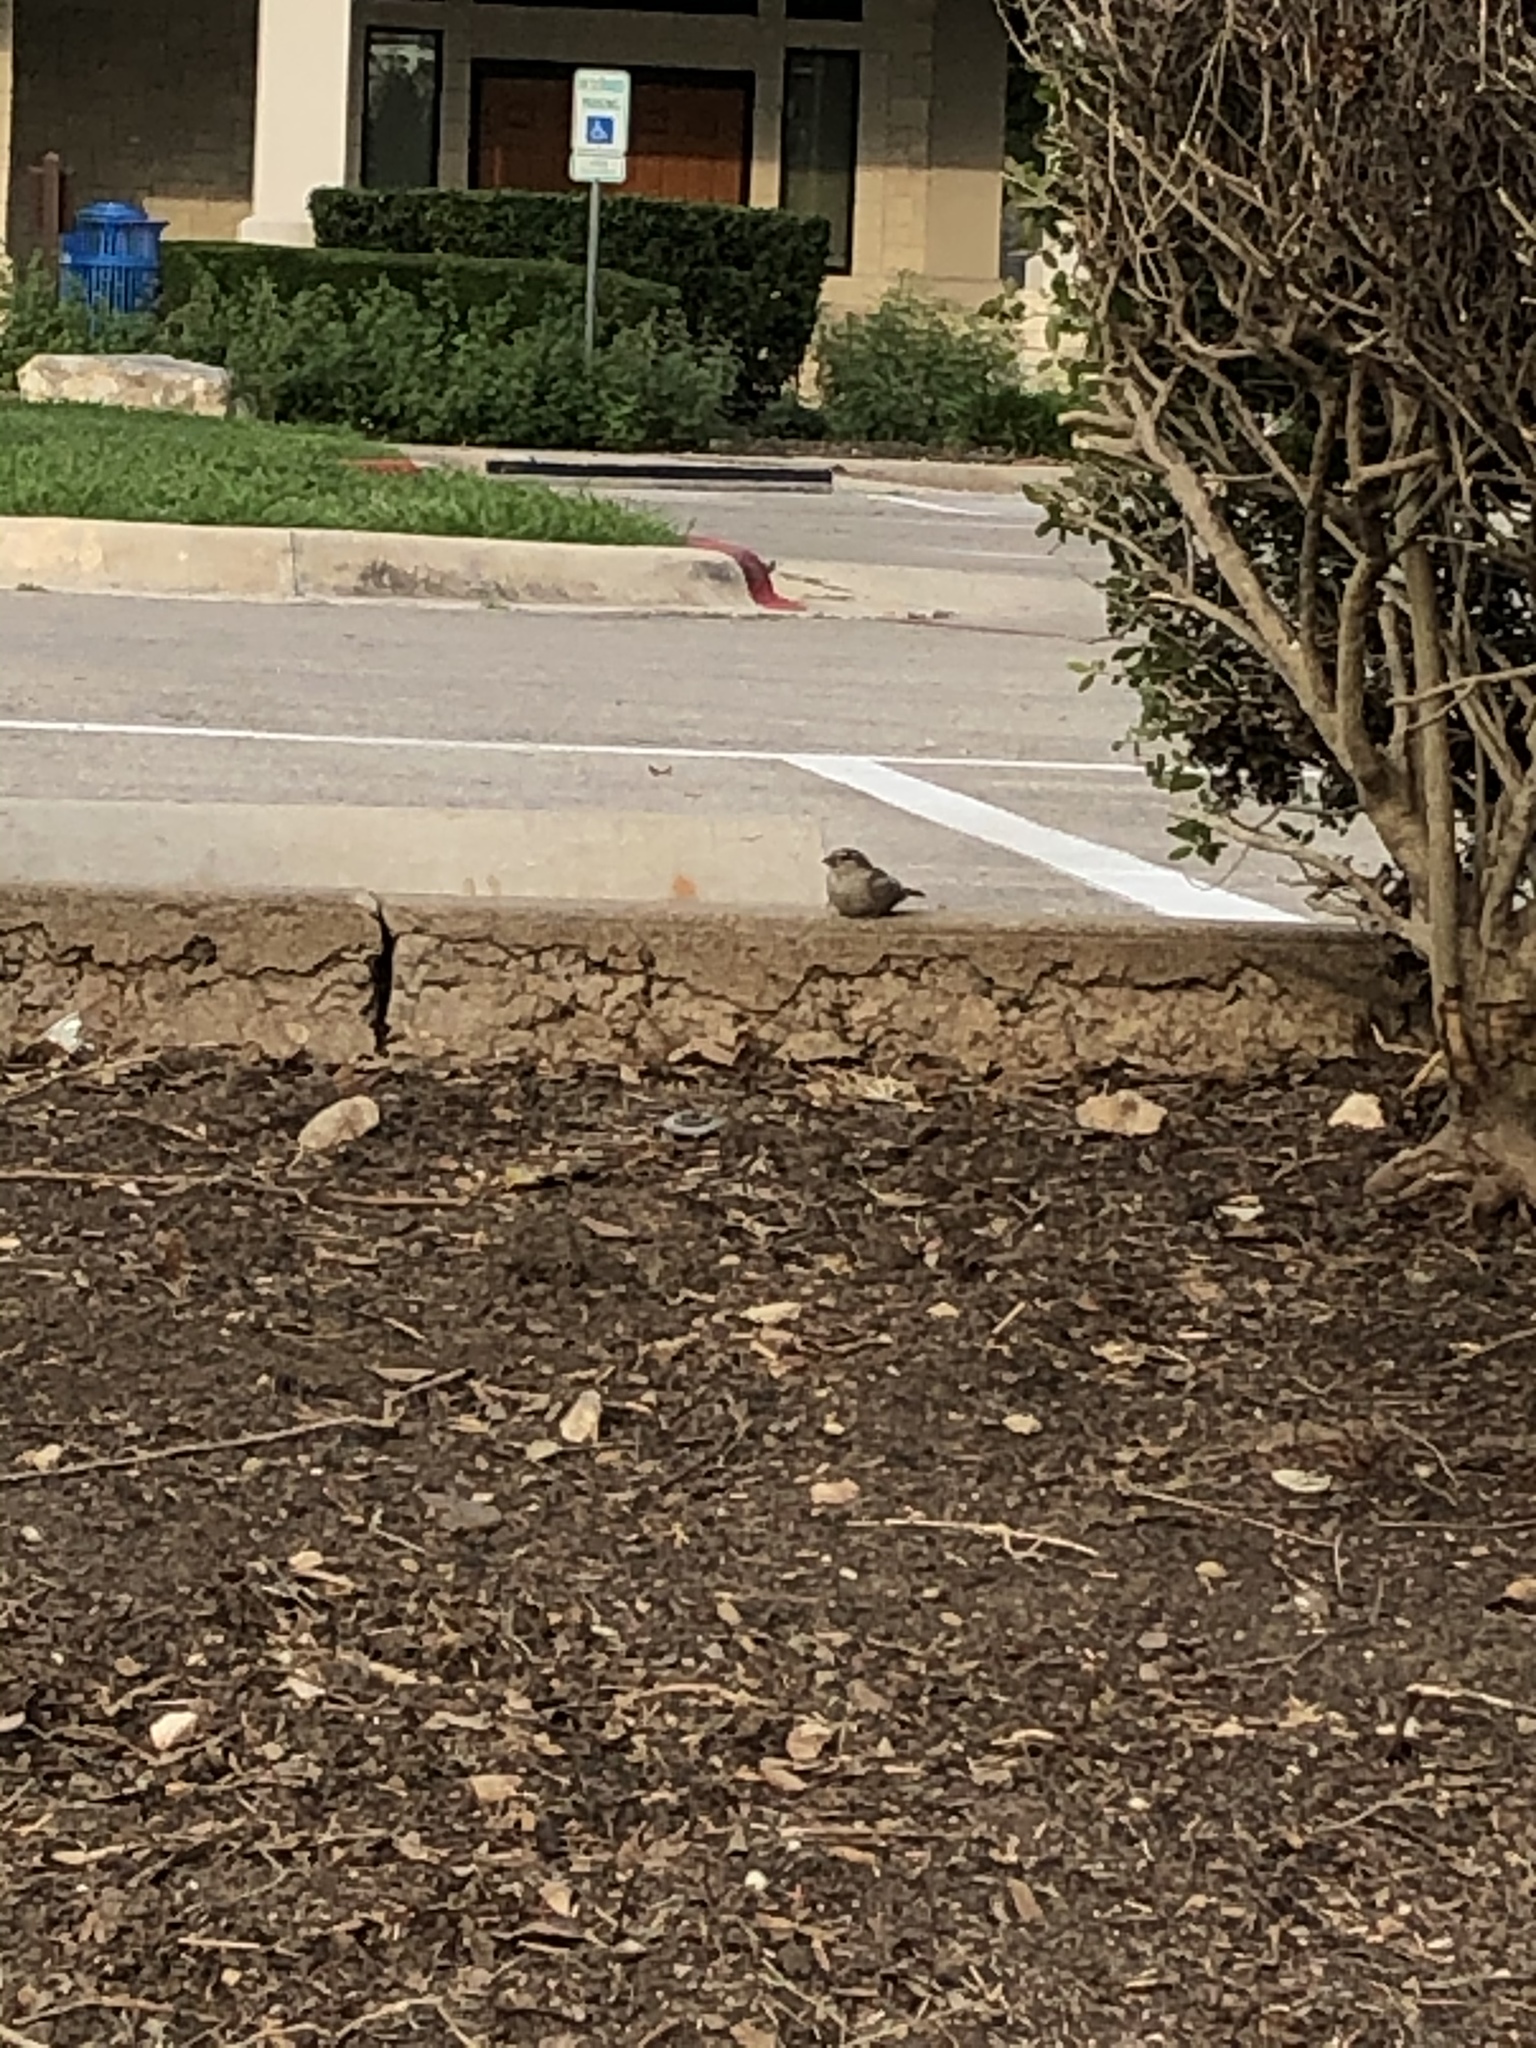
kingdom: Animalia
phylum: Chordata
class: Aves
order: Passeriformes
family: Passeridae
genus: Passer
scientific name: Passer domesticus
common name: House sparrow
